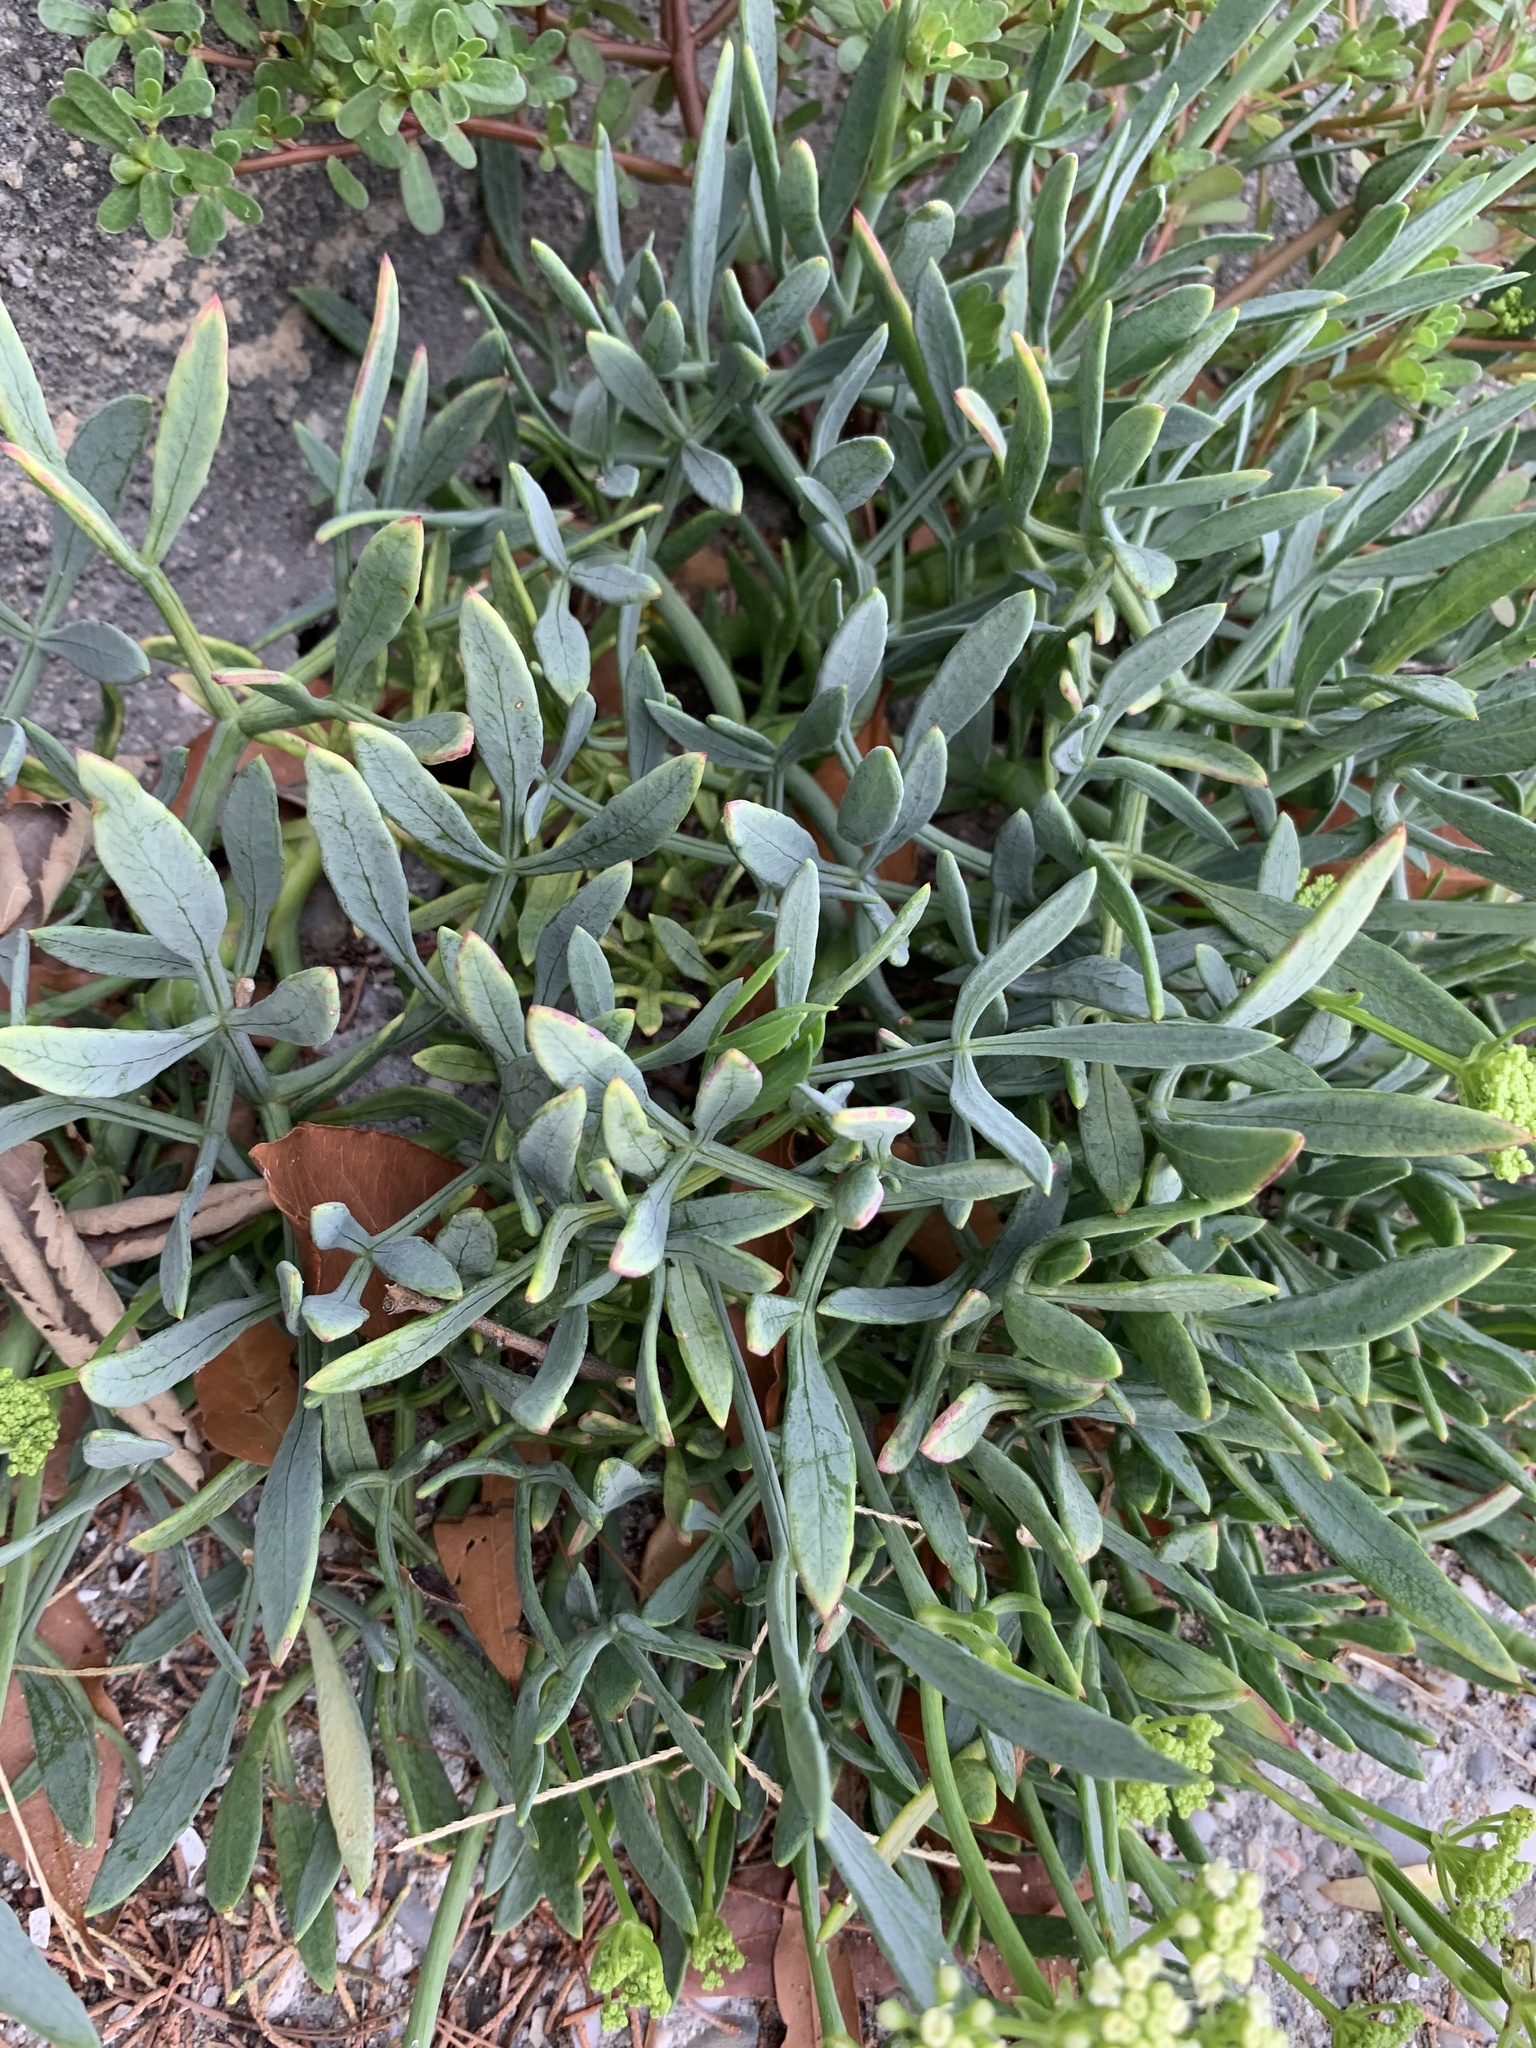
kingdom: Plantae
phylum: Tracheophyta
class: Magnoliopsida
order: Apiales
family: Apiaceae
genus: Crithmum
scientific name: Crithmum maritimum
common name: Rock samphire
